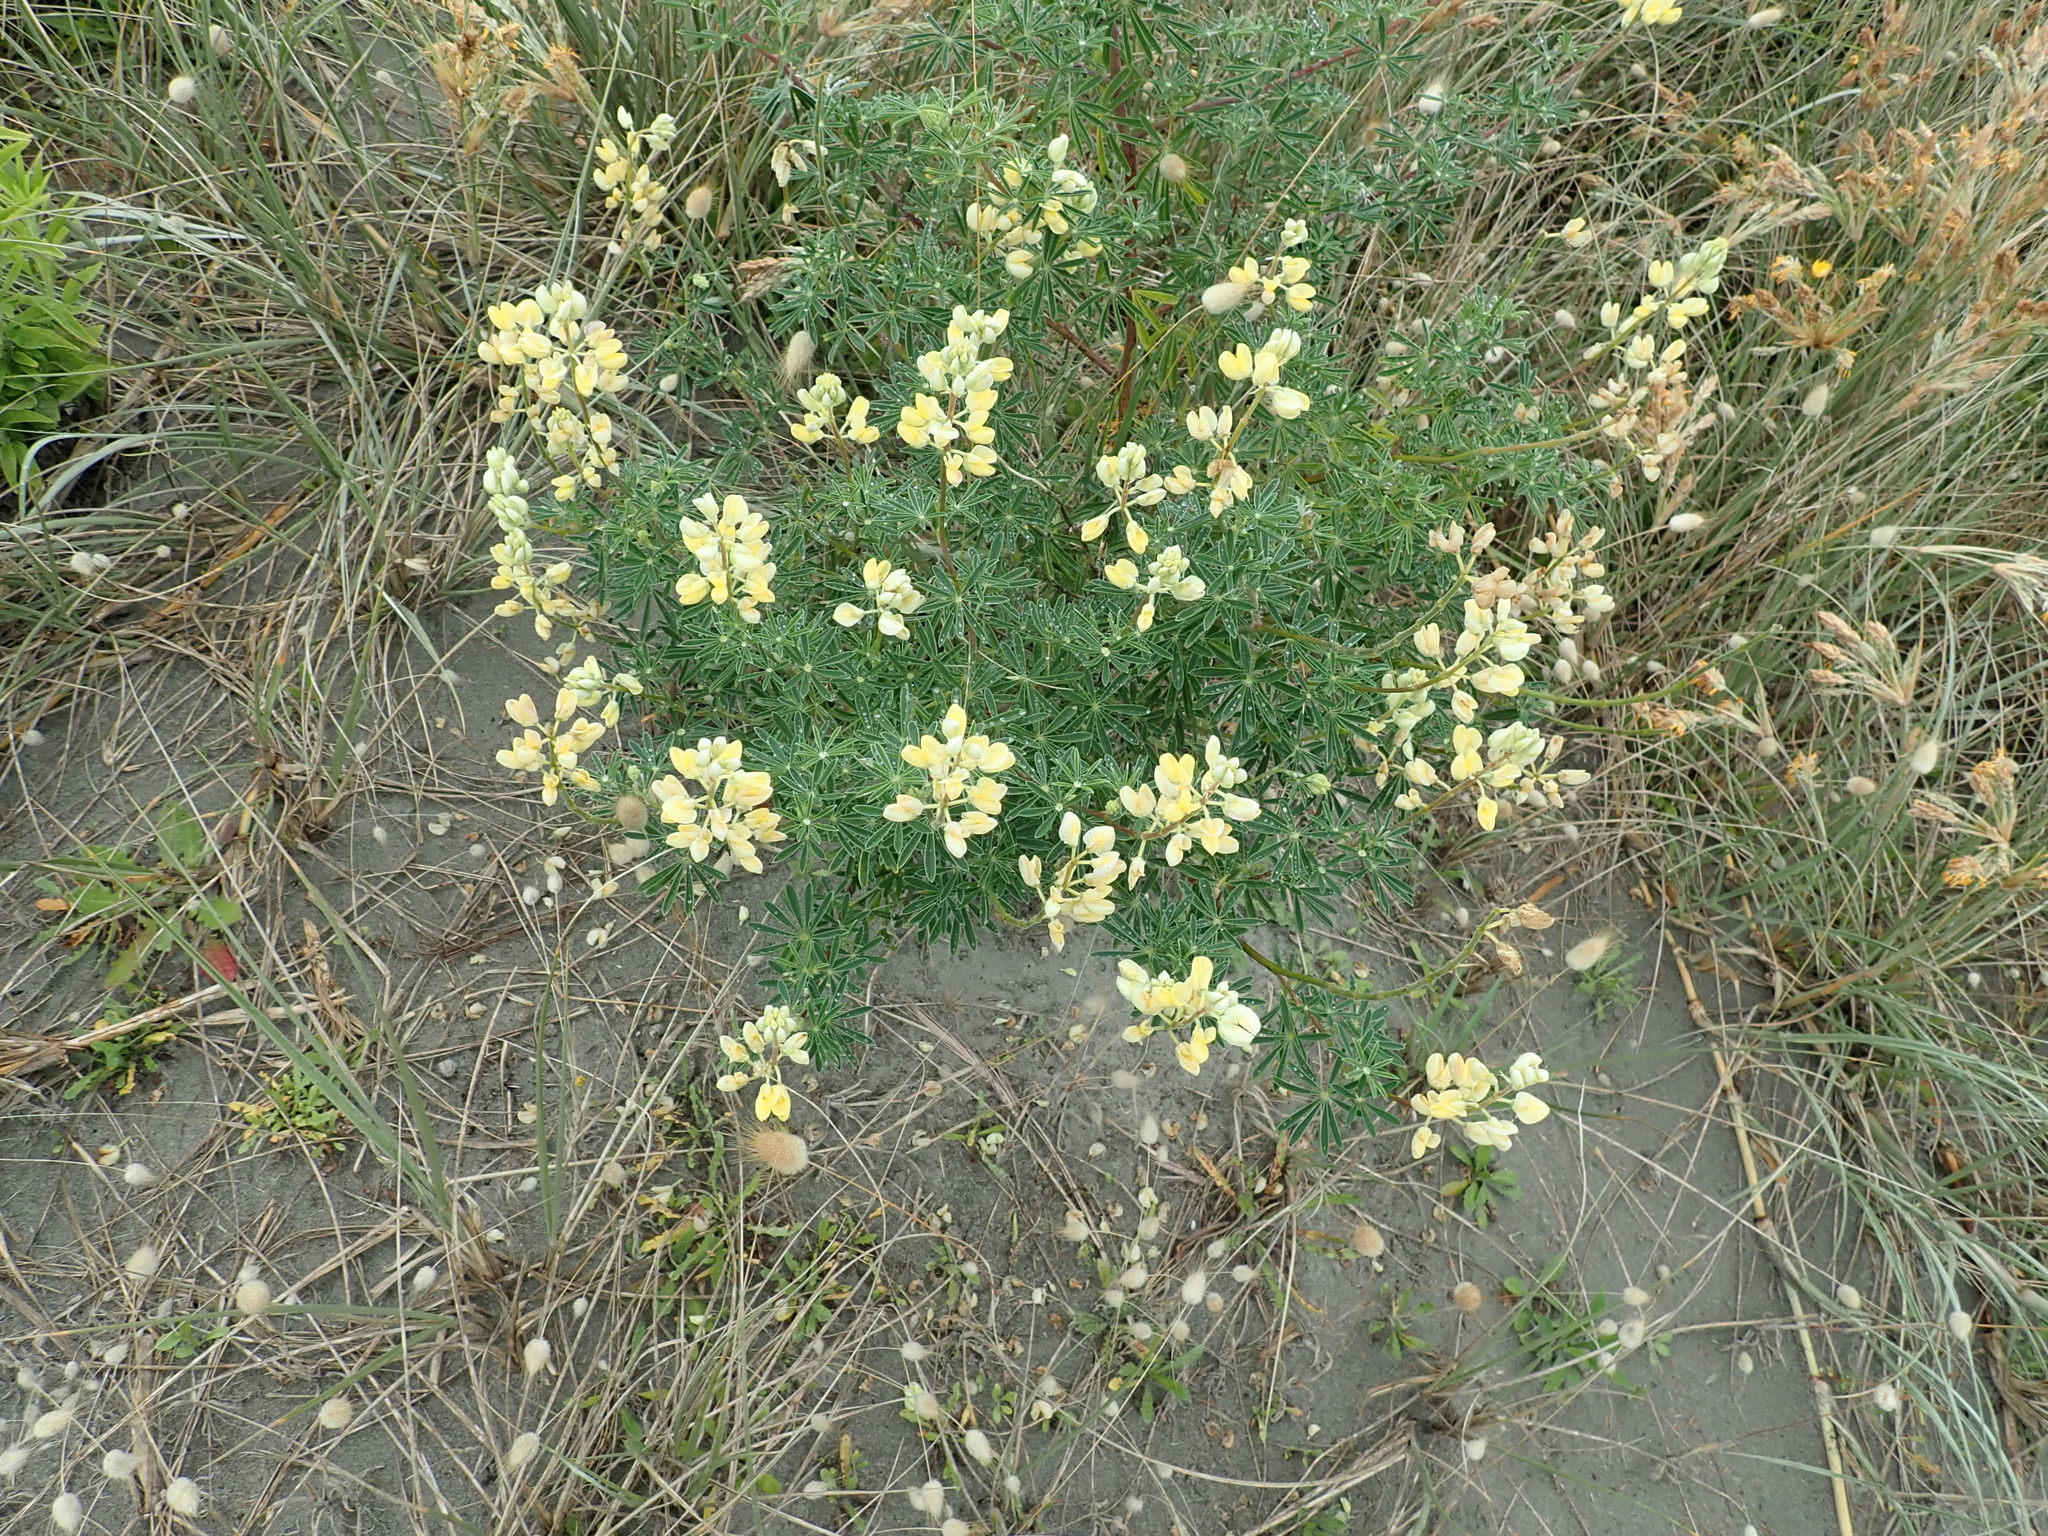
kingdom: Plantae
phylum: Tracheophyta
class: Magnoliopsida
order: Fabales
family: Fabaceae
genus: Lupinus
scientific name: Lupinus arboreus
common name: Yellow bush lupine
